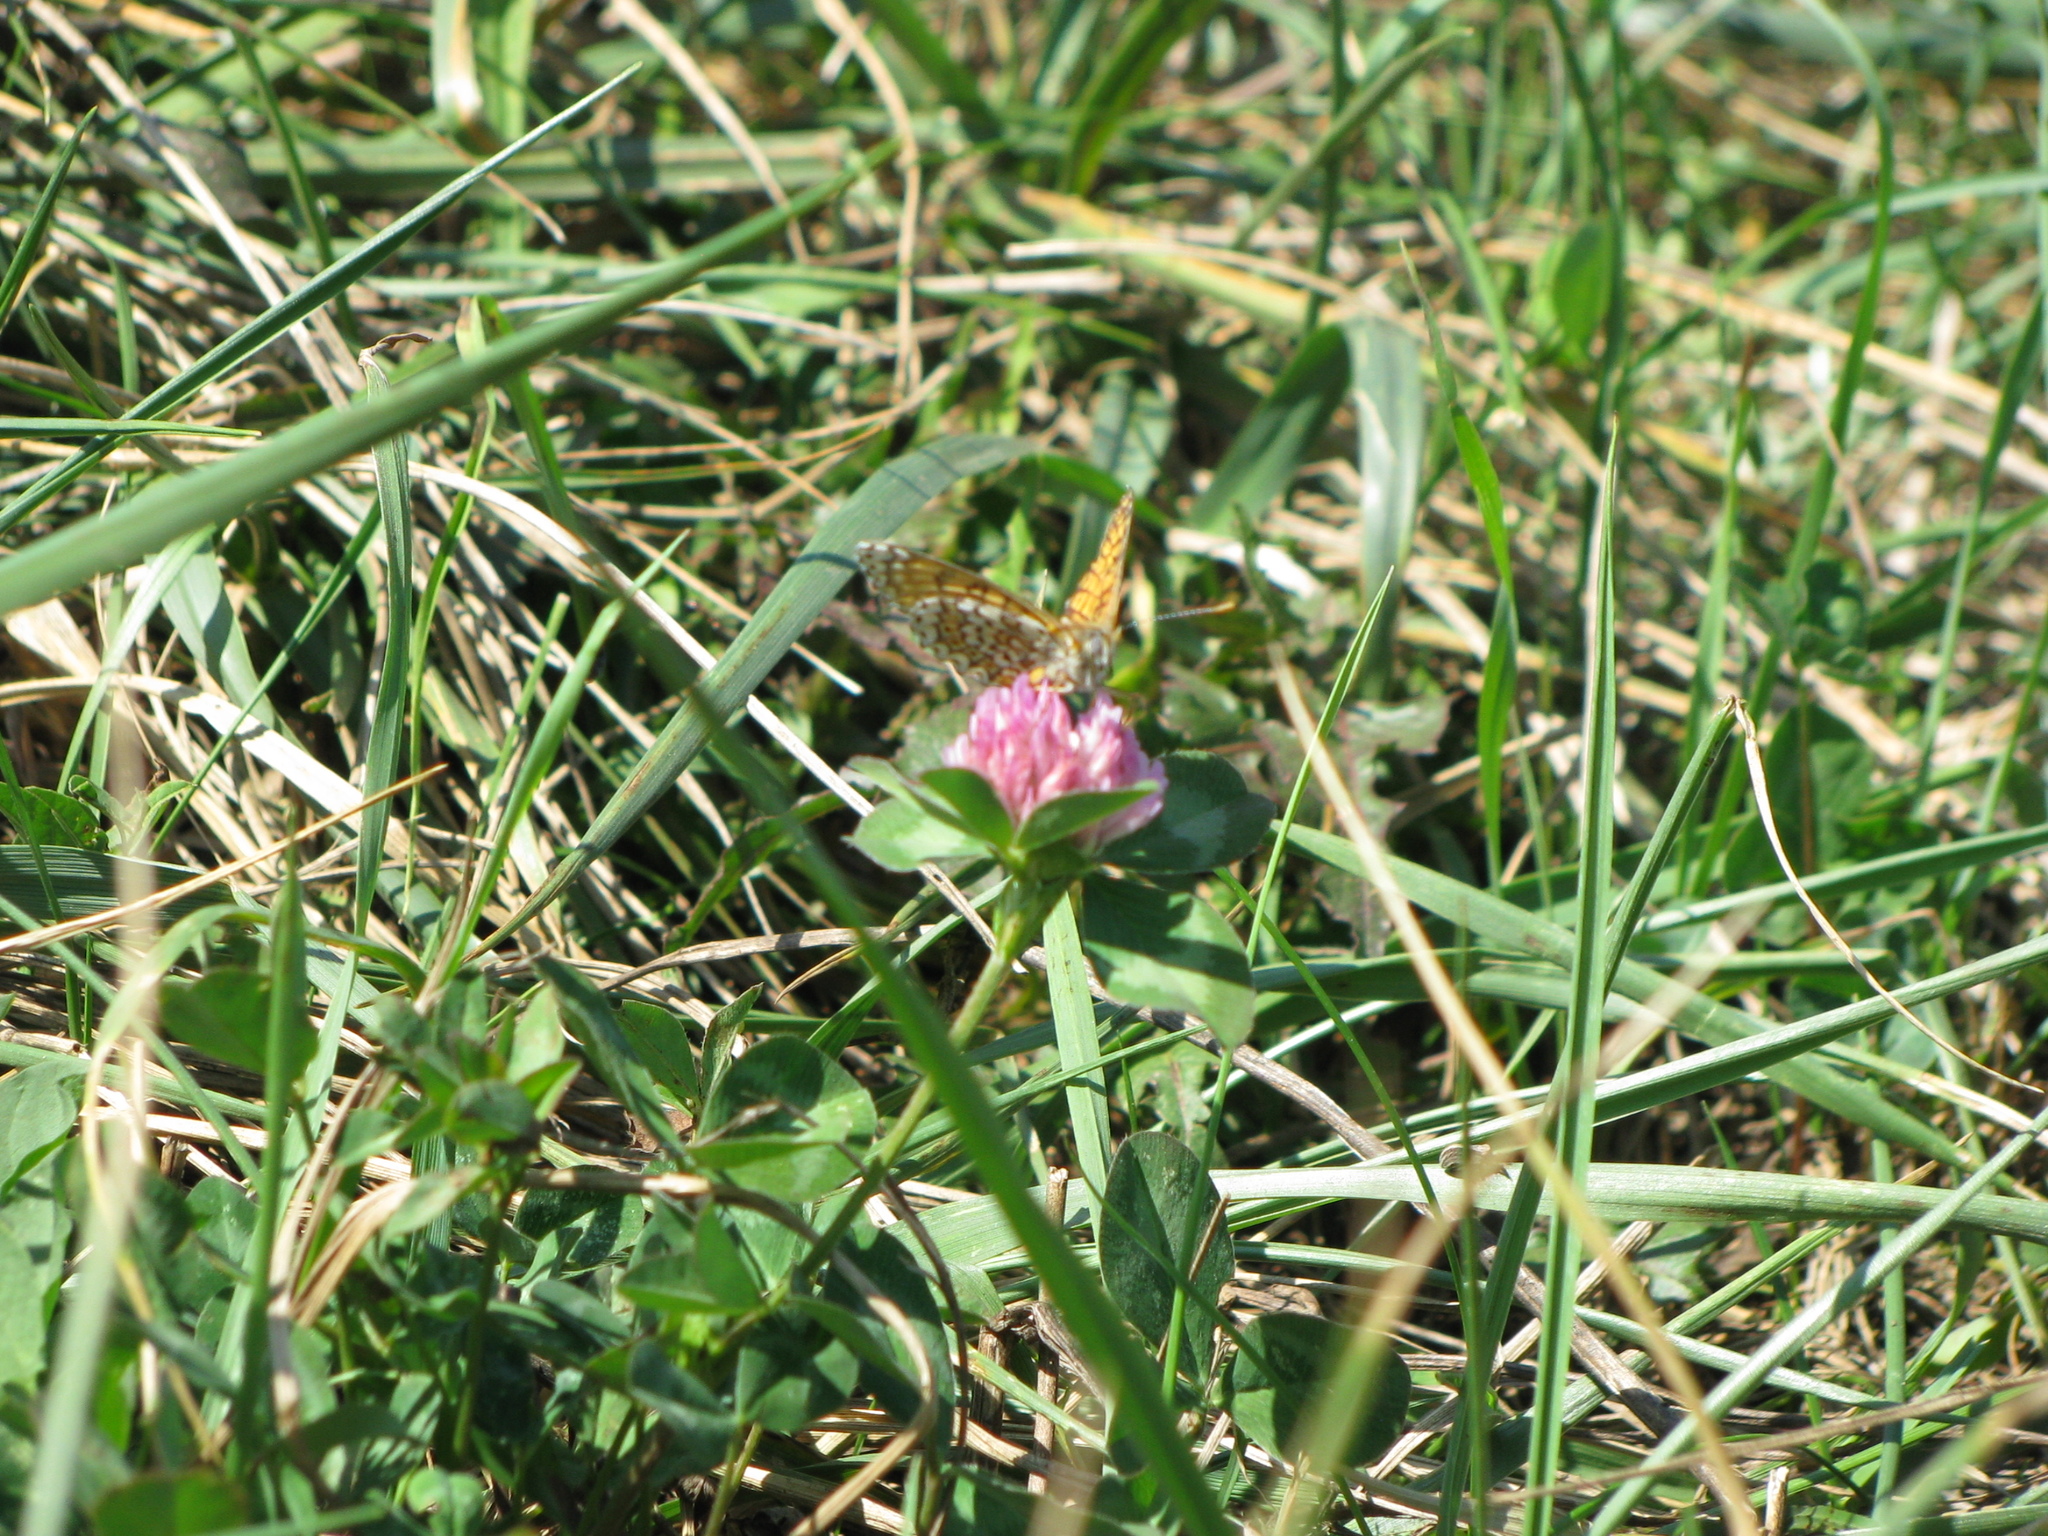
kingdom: Animalia
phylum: Arthropoda
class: Insecta
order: Lepidoptera
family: Nymphalidae
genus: Melitaea
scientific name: Melitaea cinxia
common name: Glanville fritillary
